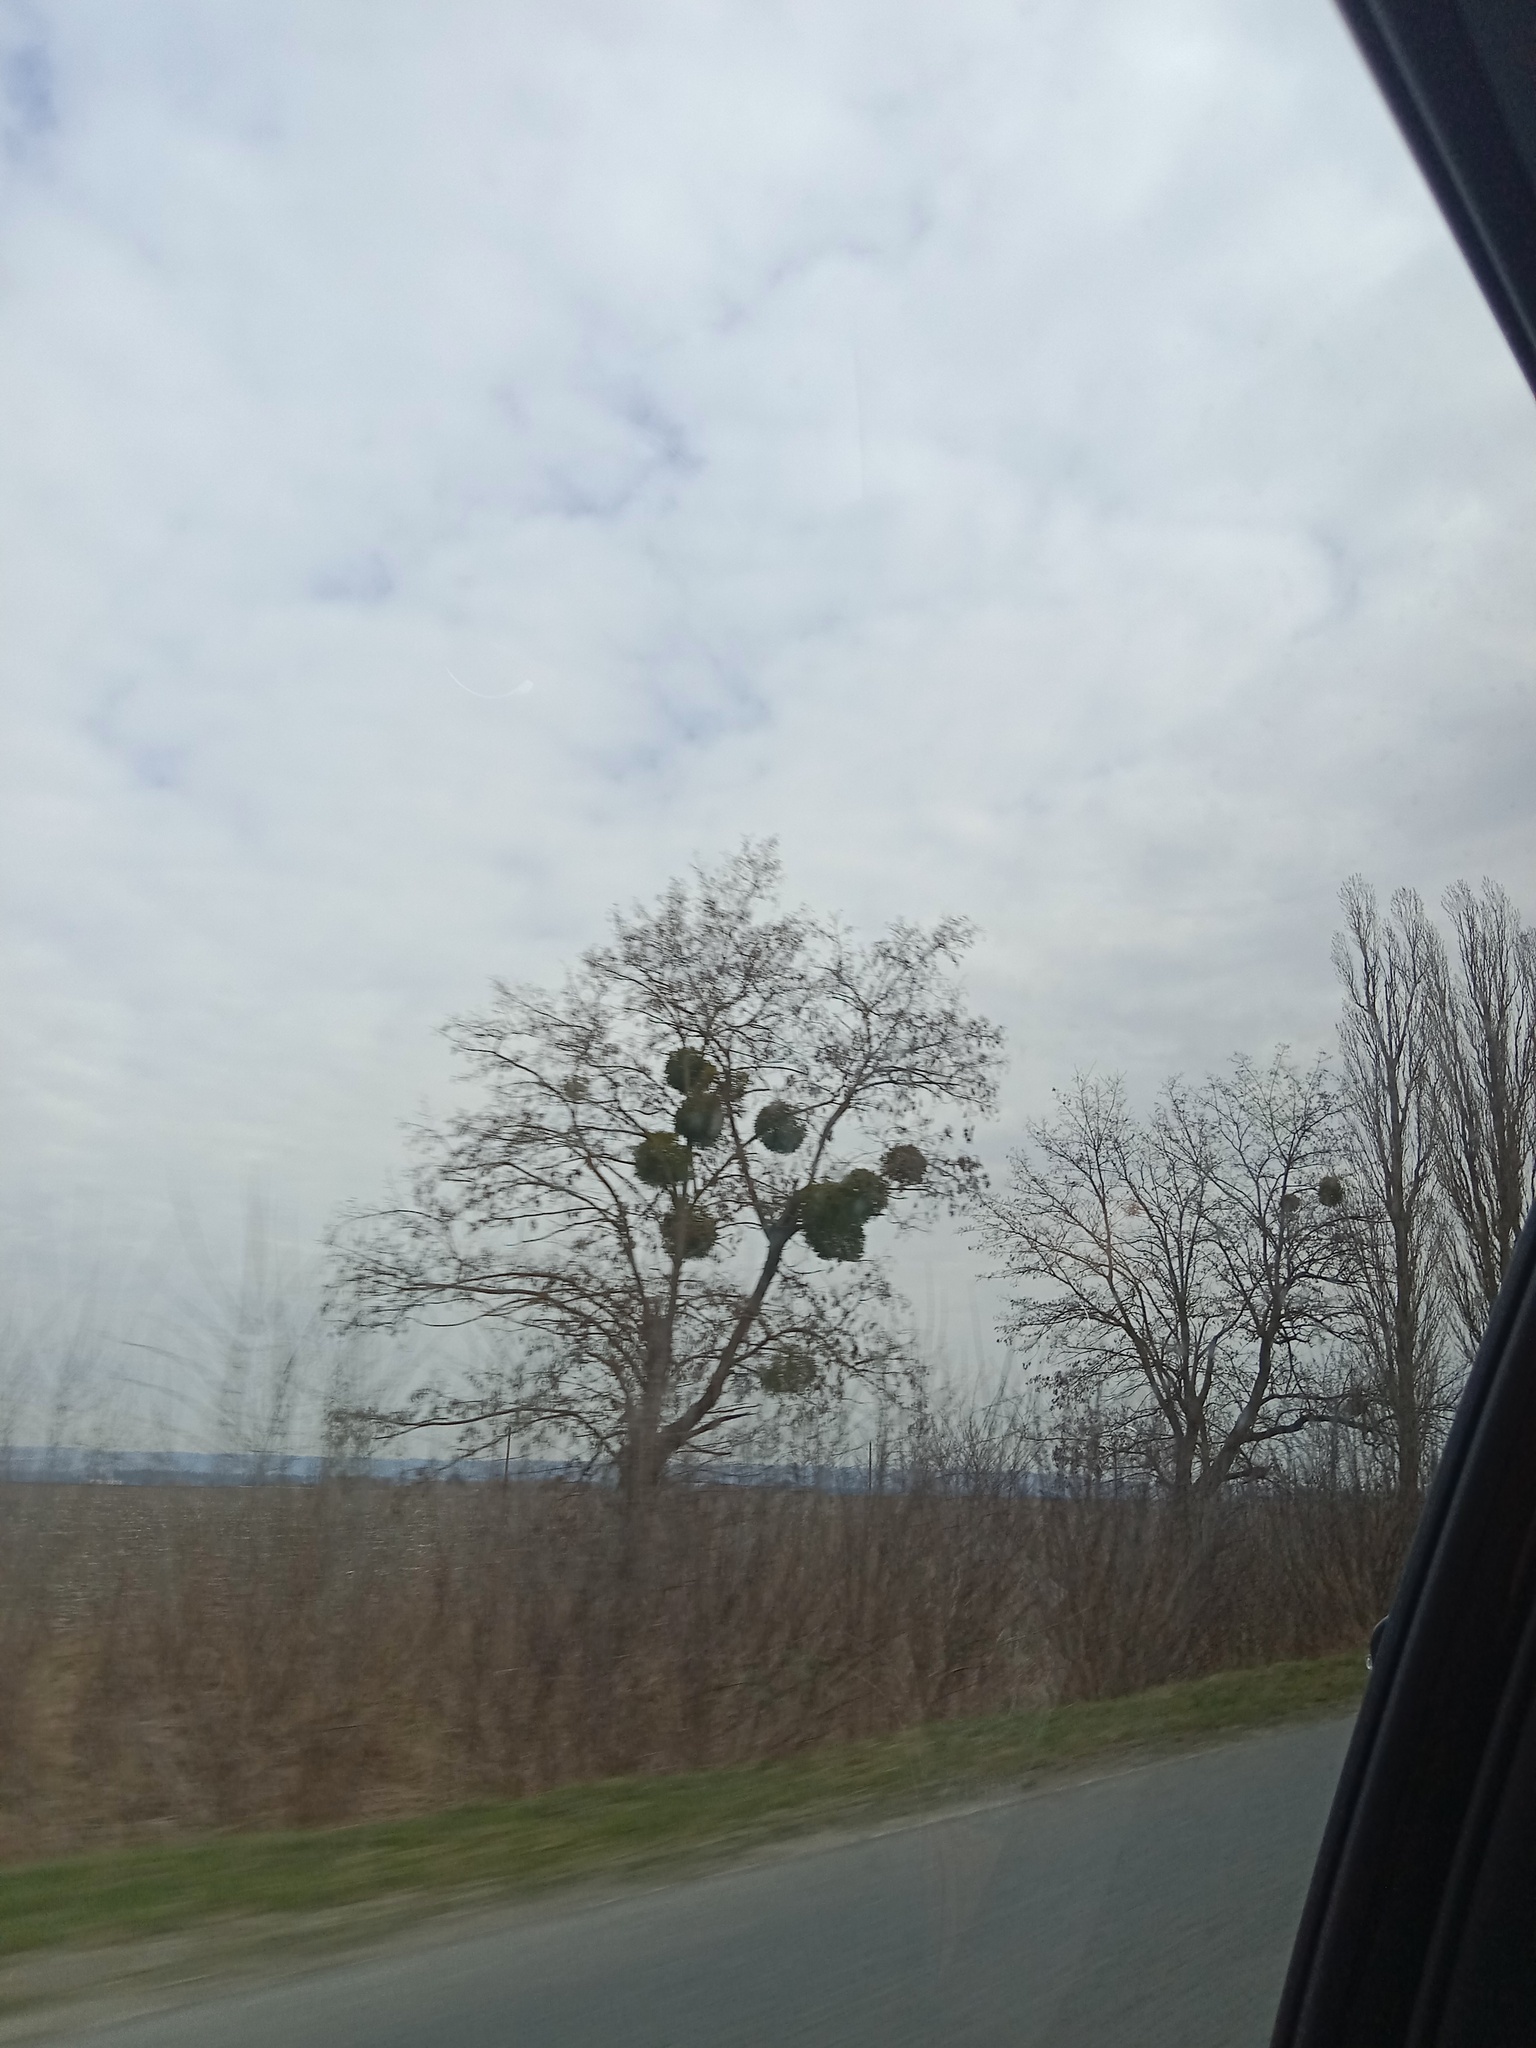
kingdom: Plantae
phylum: Tracheophyta
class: Magnoliopsida
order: Santalales
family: Viscaceae
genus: Viscum
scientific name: Viscum album
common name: Mistletoe
